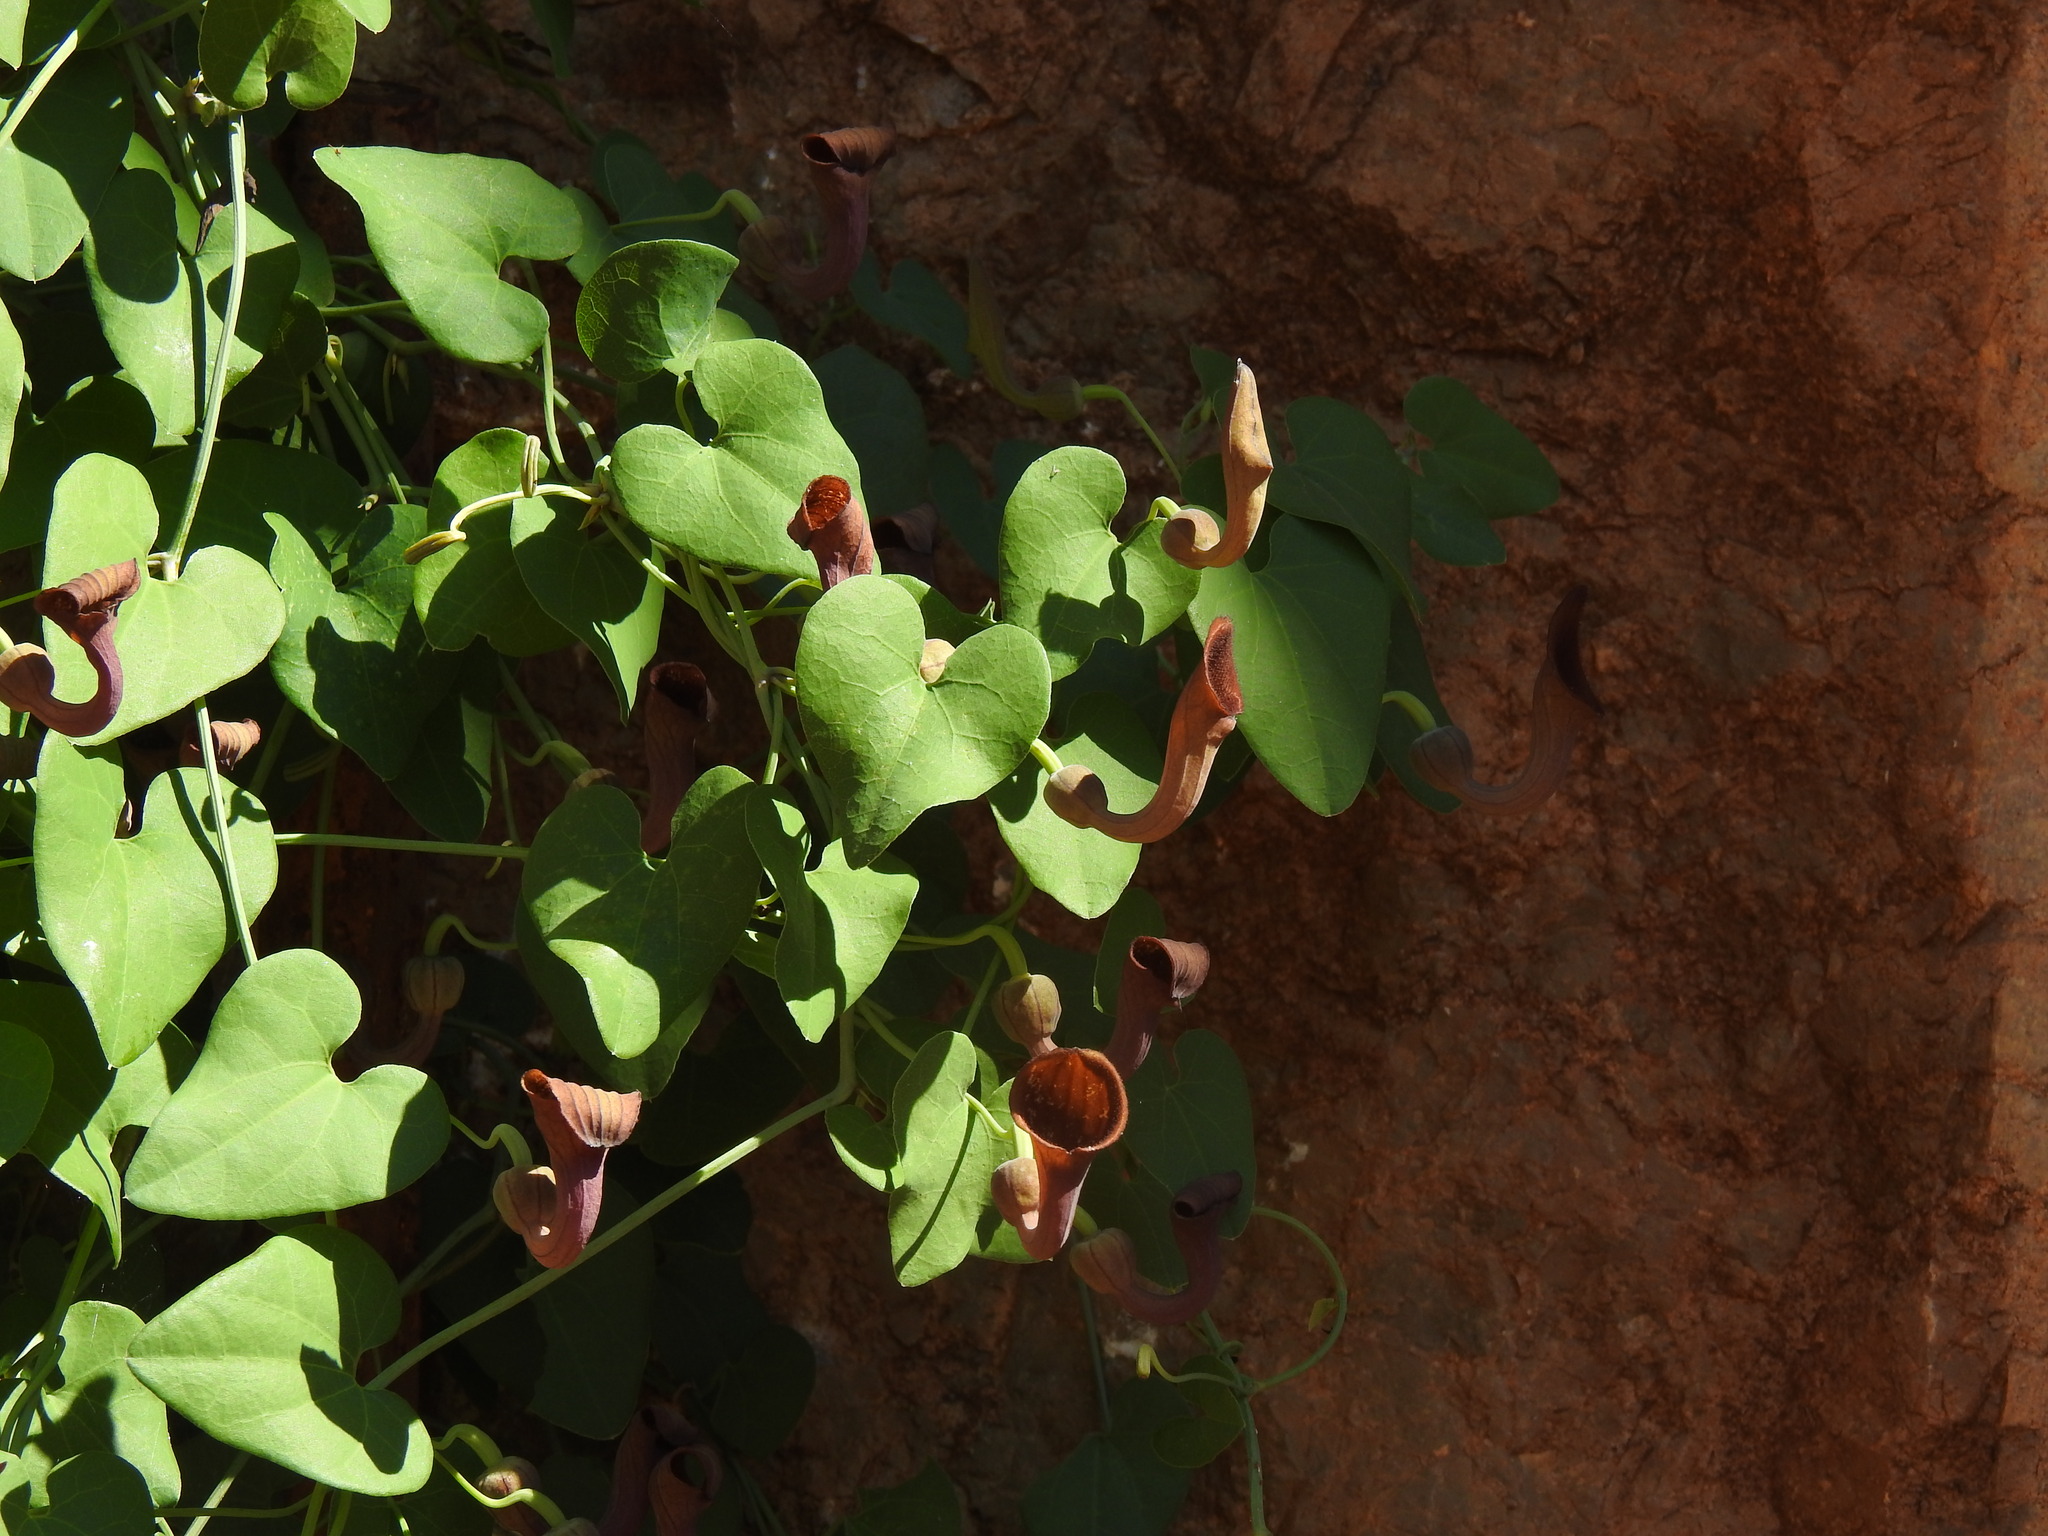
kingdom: Plantae
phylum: Tracheophyta
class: Magnoliopsida
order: Piperales
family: Aristolochiaceae
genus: Aristolochia
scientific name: Aristolochia baetica
